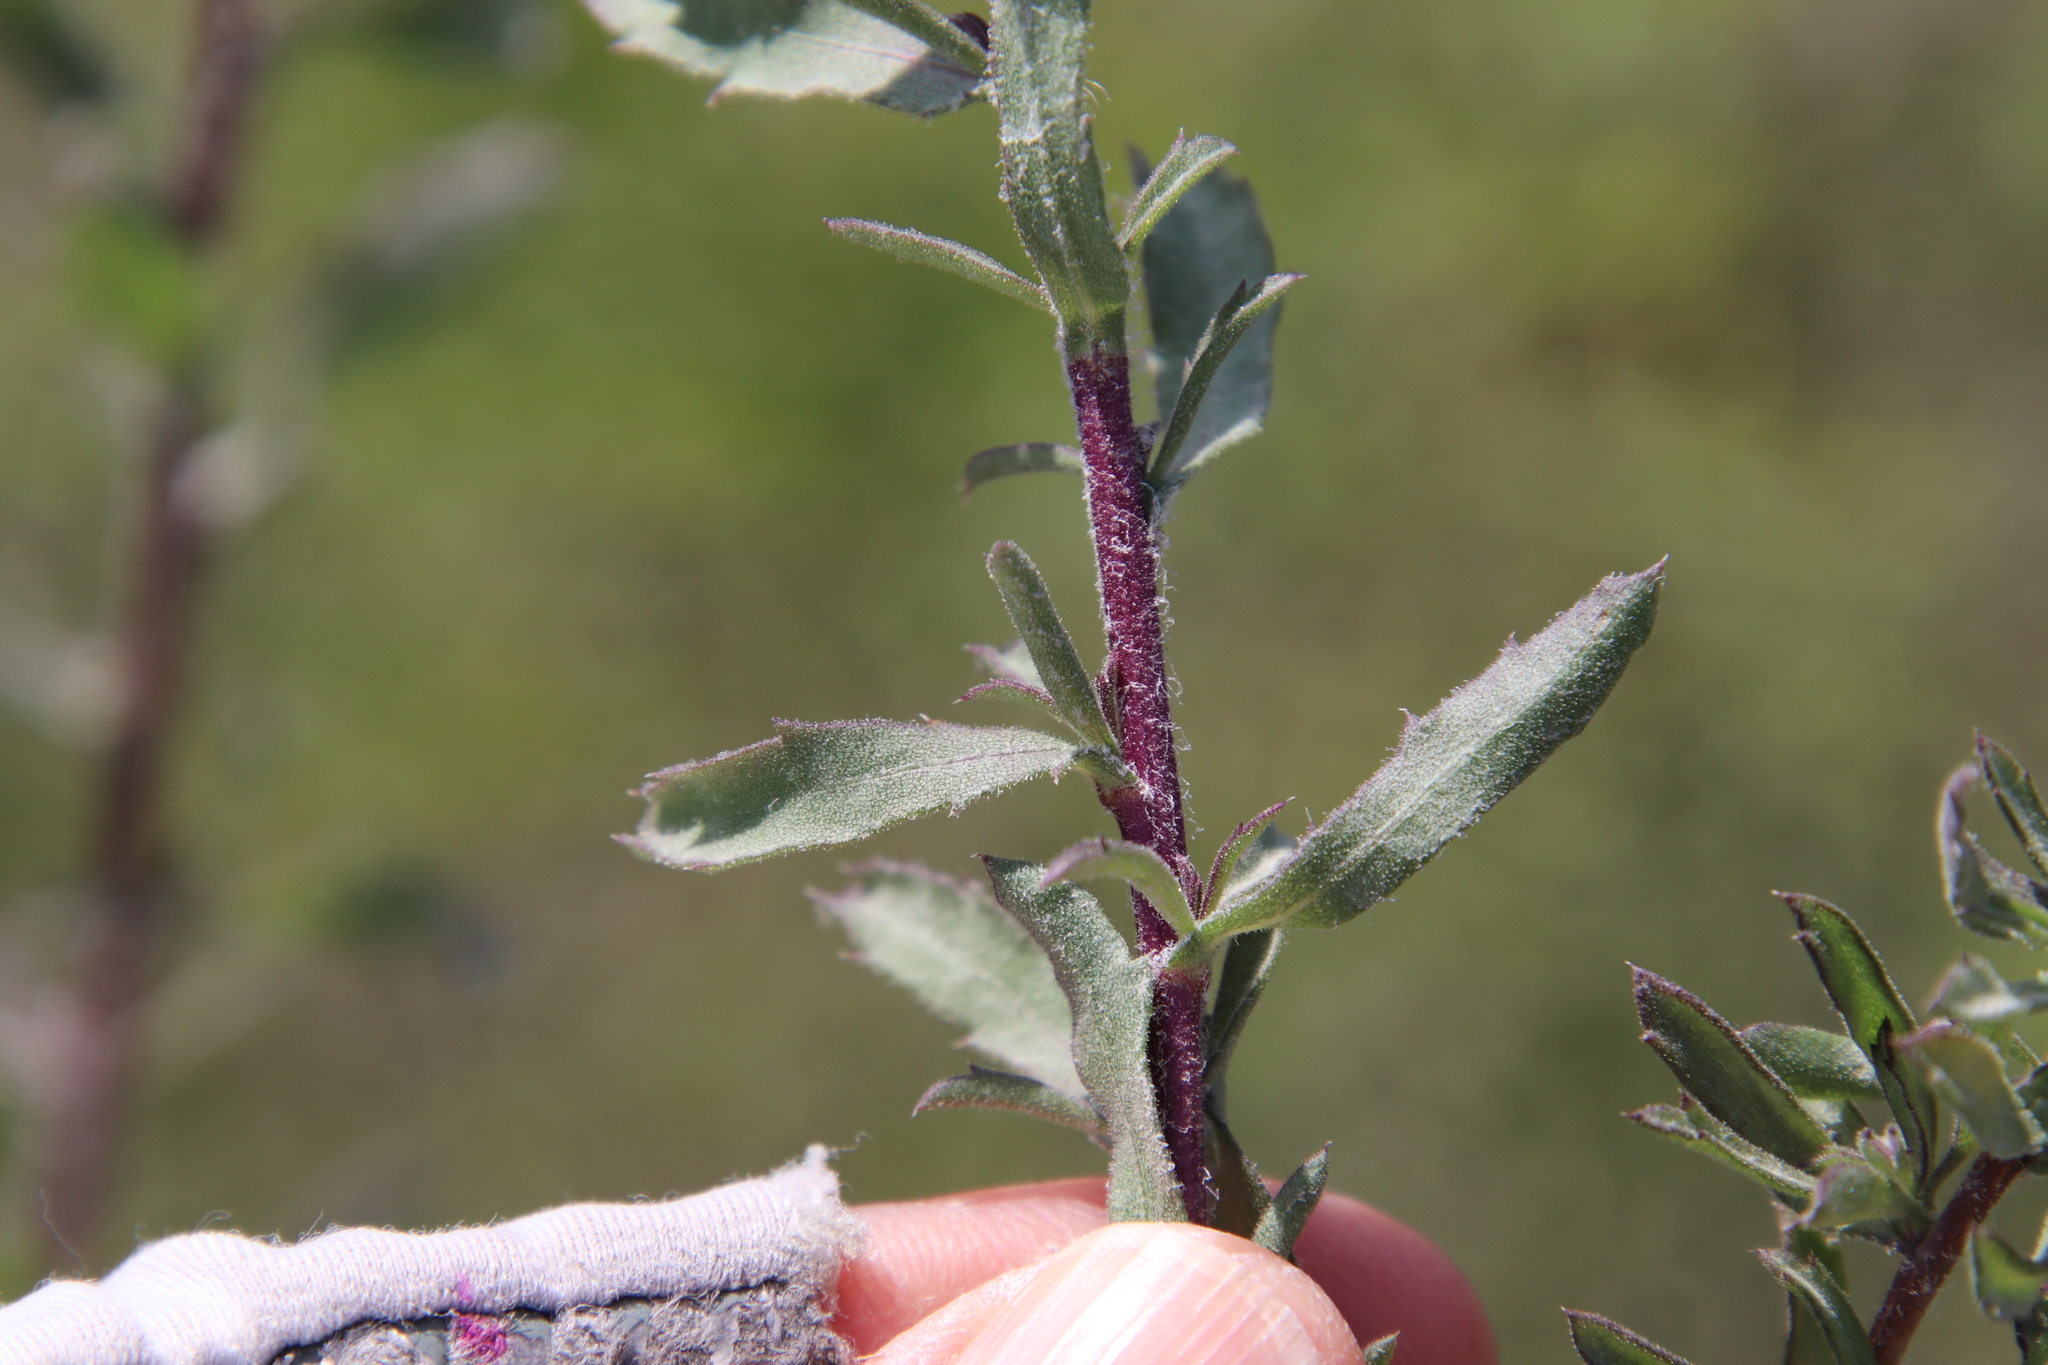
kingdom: Plantae
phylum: Tracheophyta
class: Magnoliopsida
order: Asterales
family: Asteraceae
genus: Isocoma
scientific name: Isocoma menziesii
